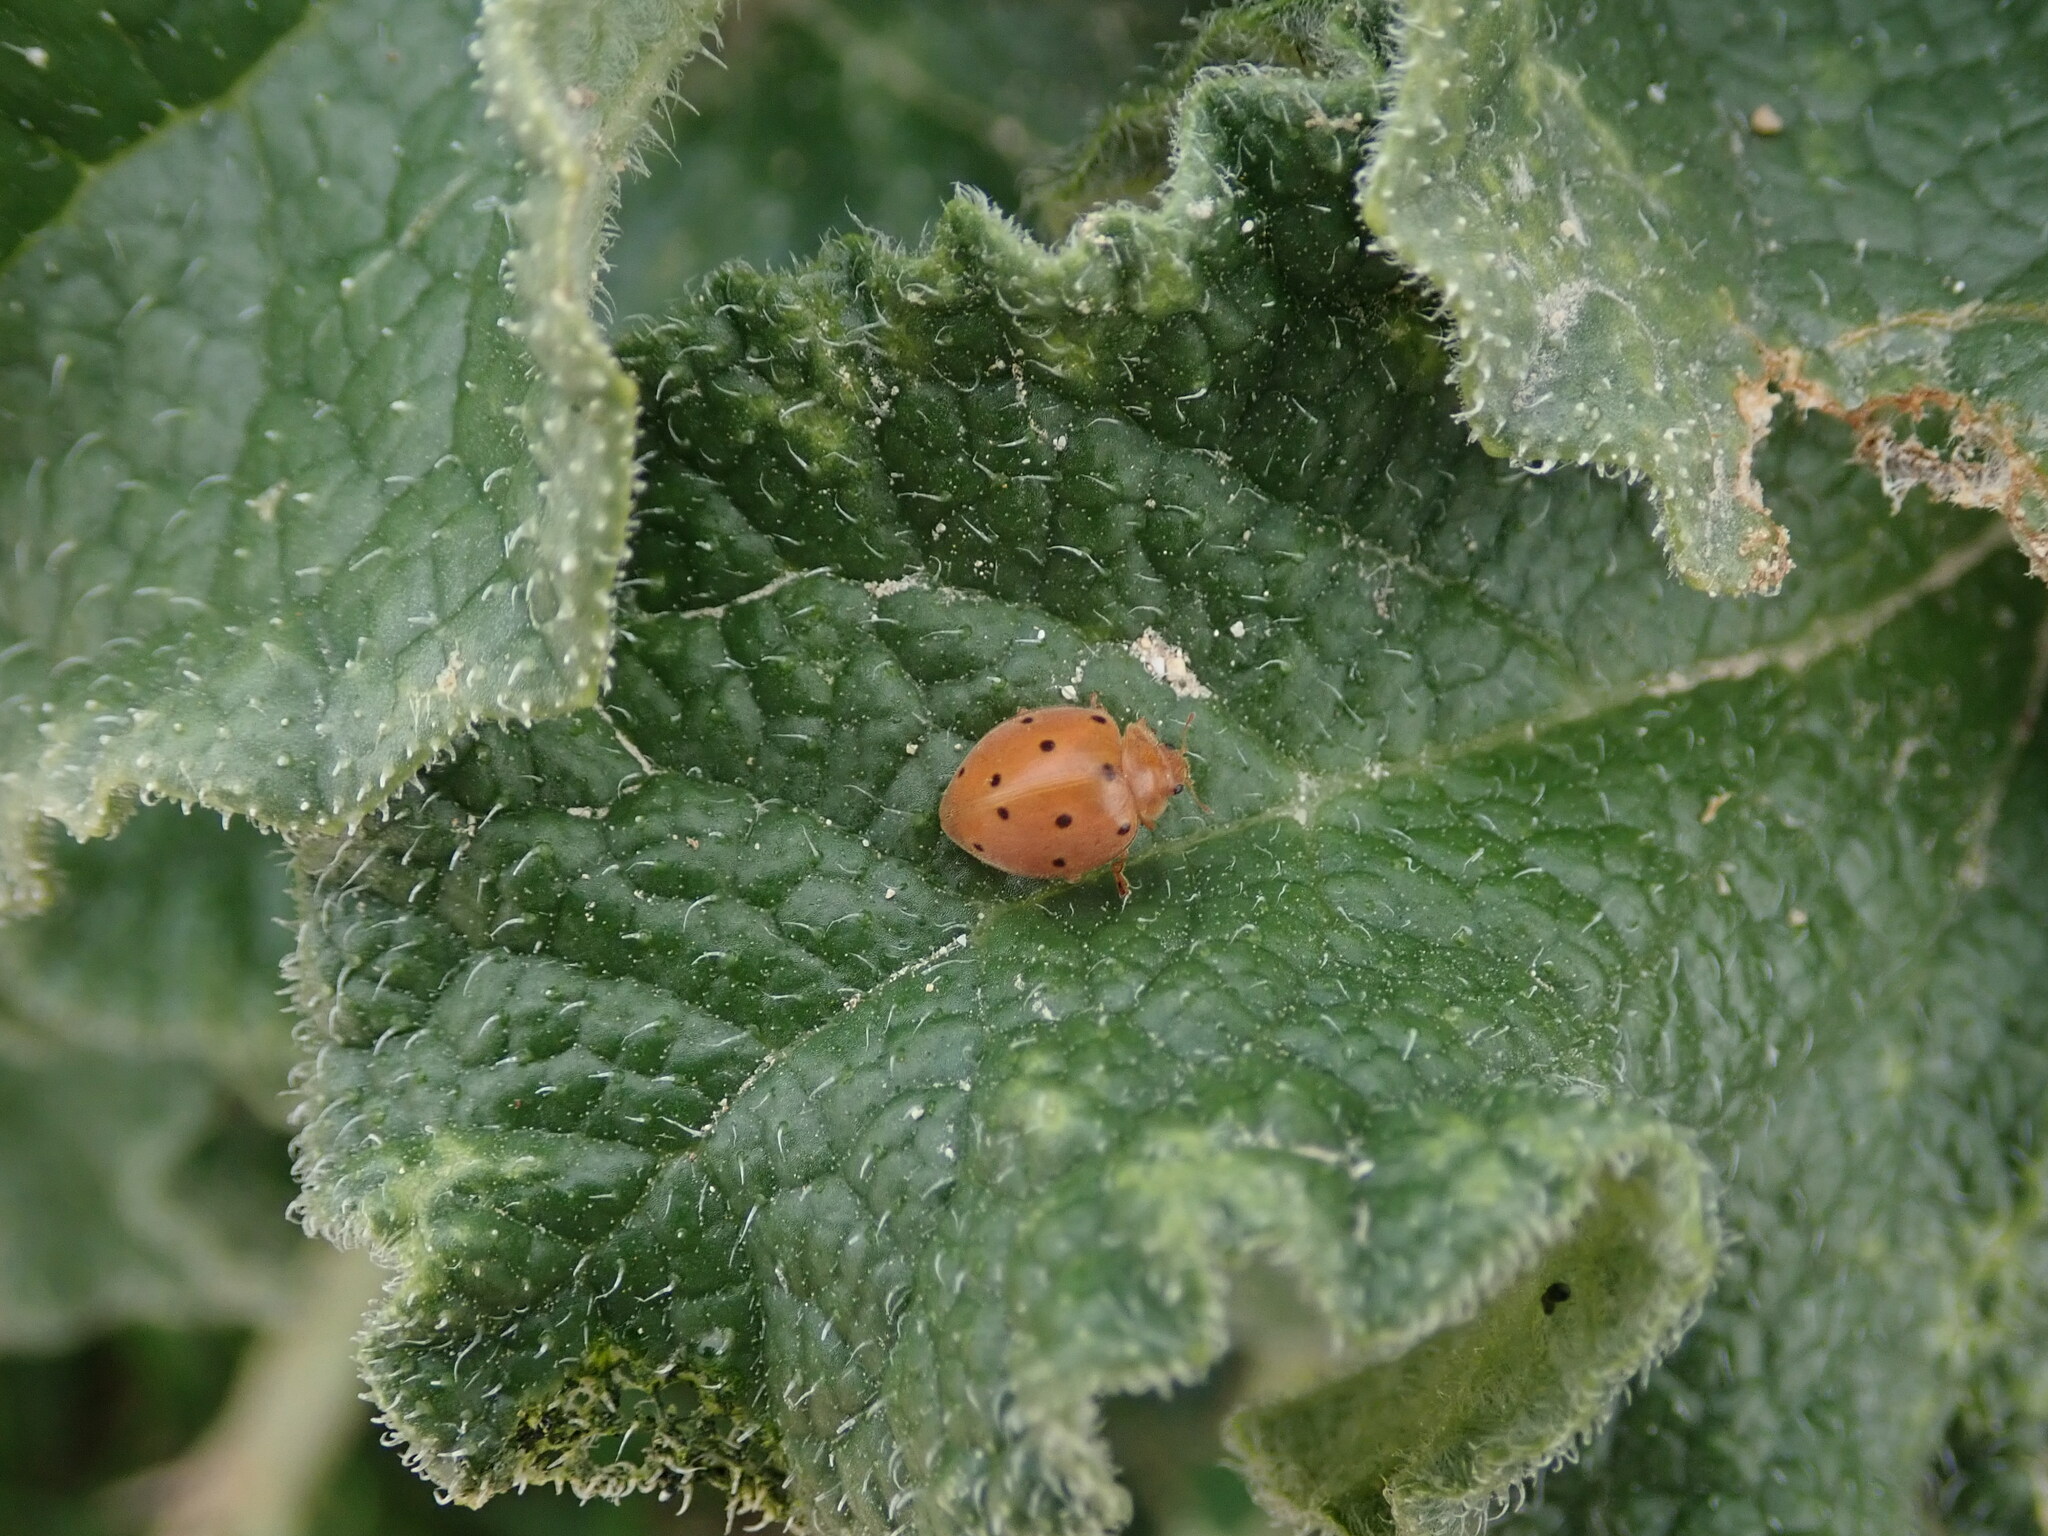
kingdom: Animalia
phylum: Arthropoda
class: Insecta
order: Coleoptera
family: Coccinellidae
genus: Henosepilachna
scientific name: Henosepilachna argus
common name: Bryony ladybird
